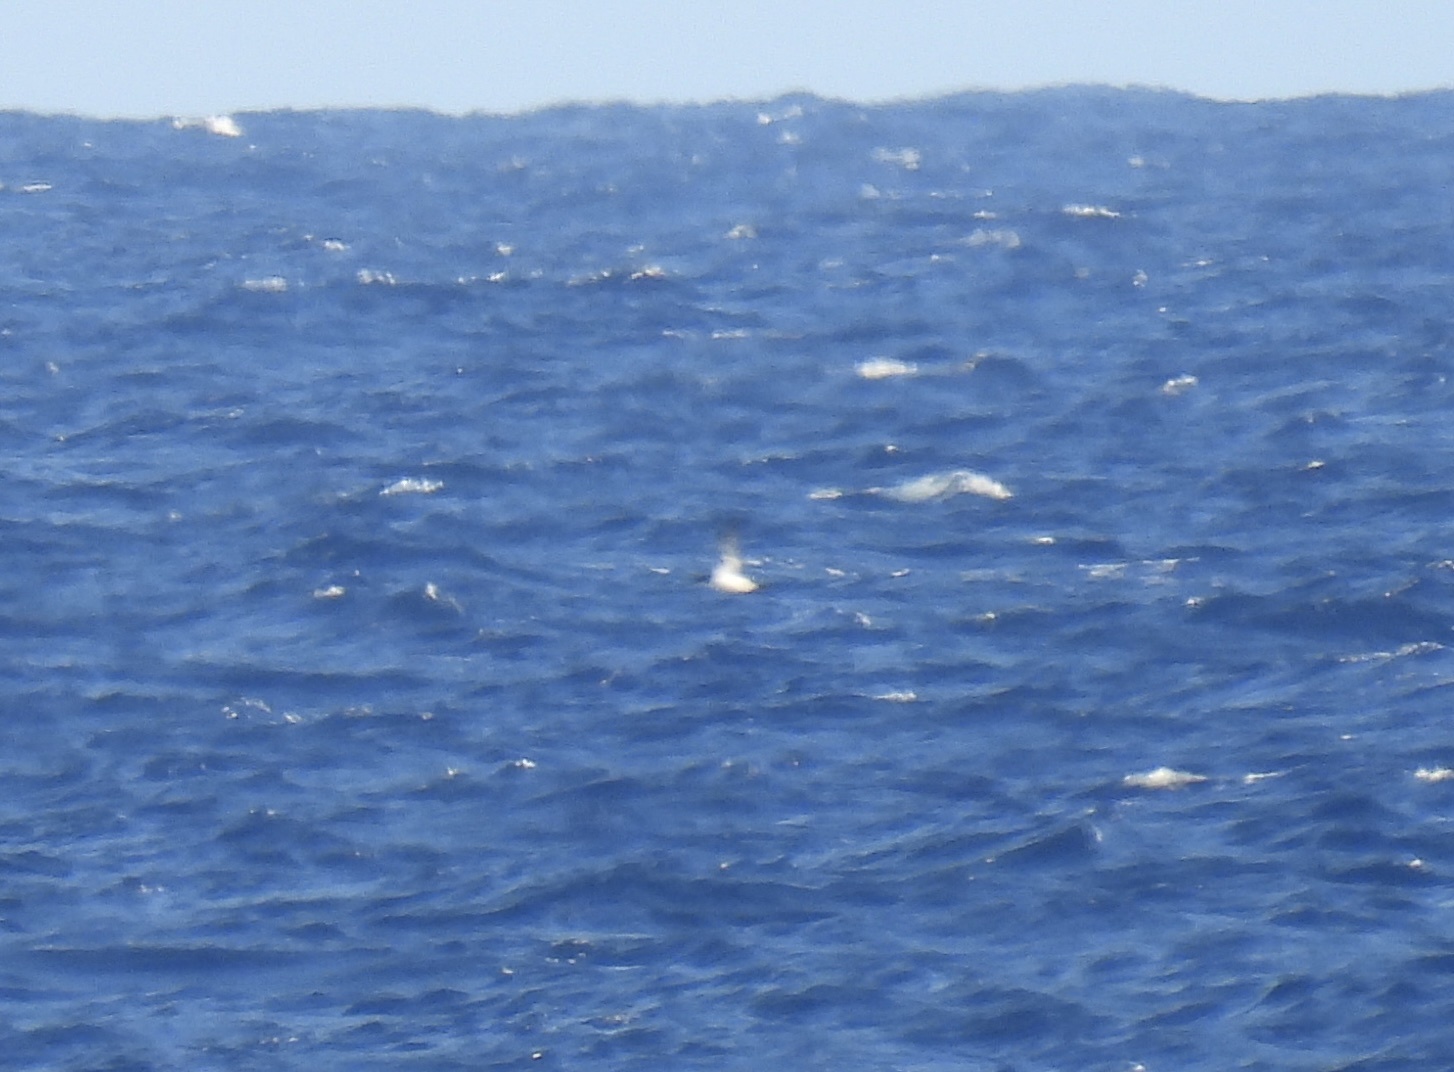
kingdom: Animalia
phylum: Chordata
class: Aves
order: Procellariiformes
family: Procellariidae
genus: Puffinus
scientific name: Puffinus newelli
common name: Newell's shearwater
